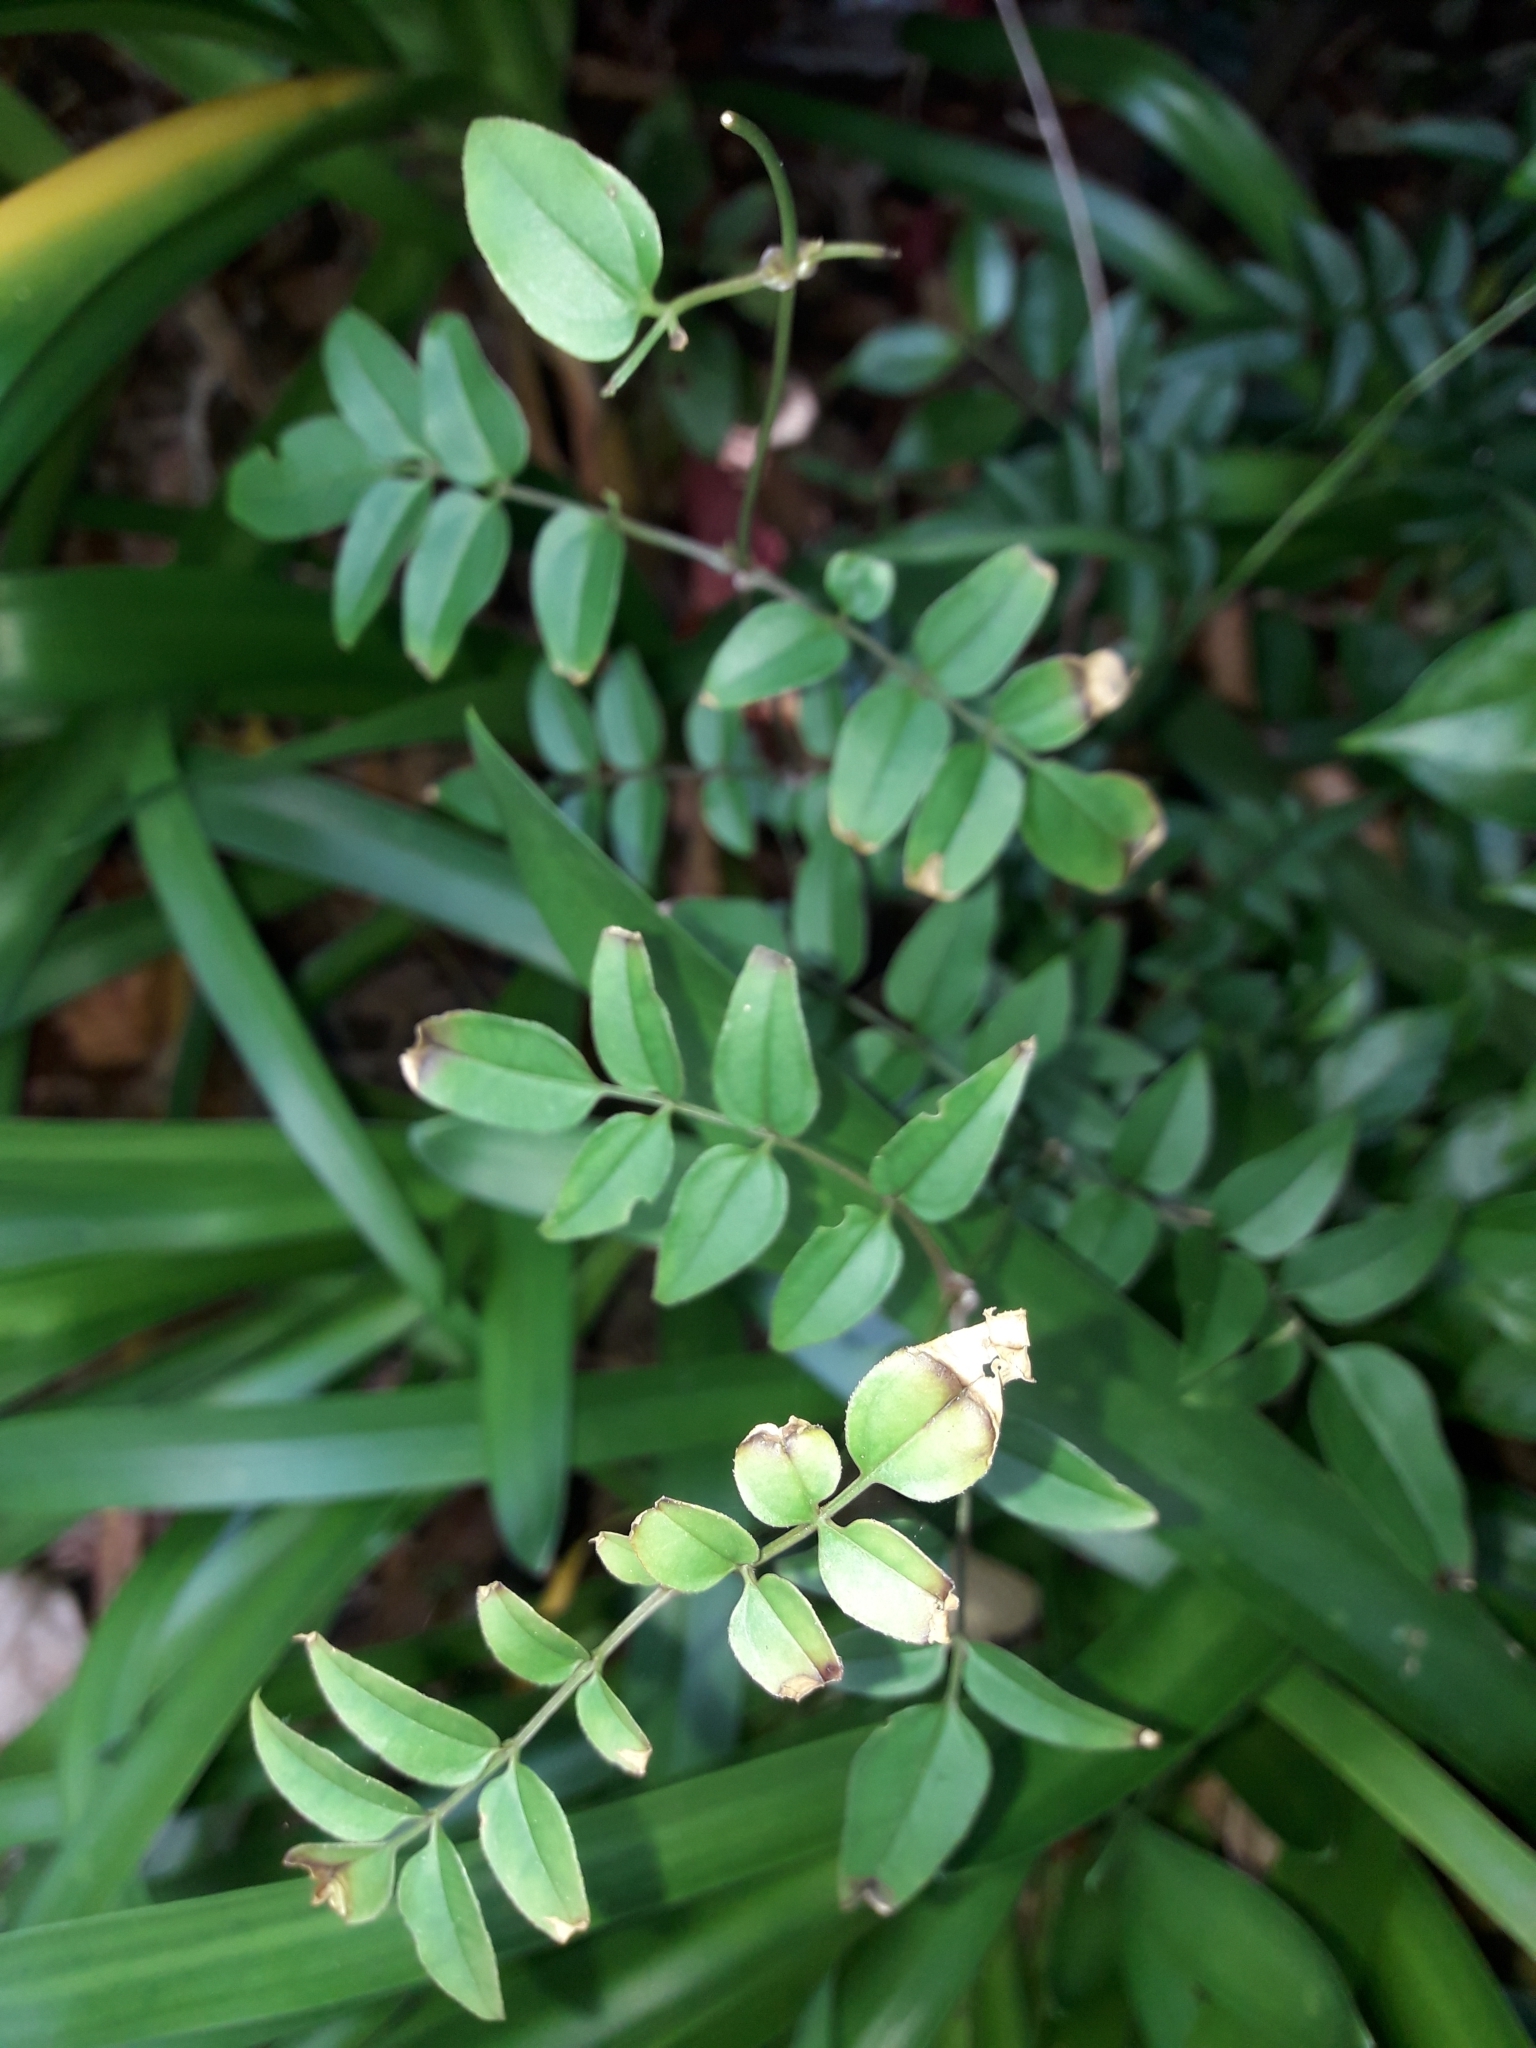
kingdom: Plantae
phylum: Tracheophyta
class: Magnoliopsida
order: Lamiales
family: Oleaceae
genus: Jasminum
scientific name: Jasminum polyanthum
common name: Pink jasmine
